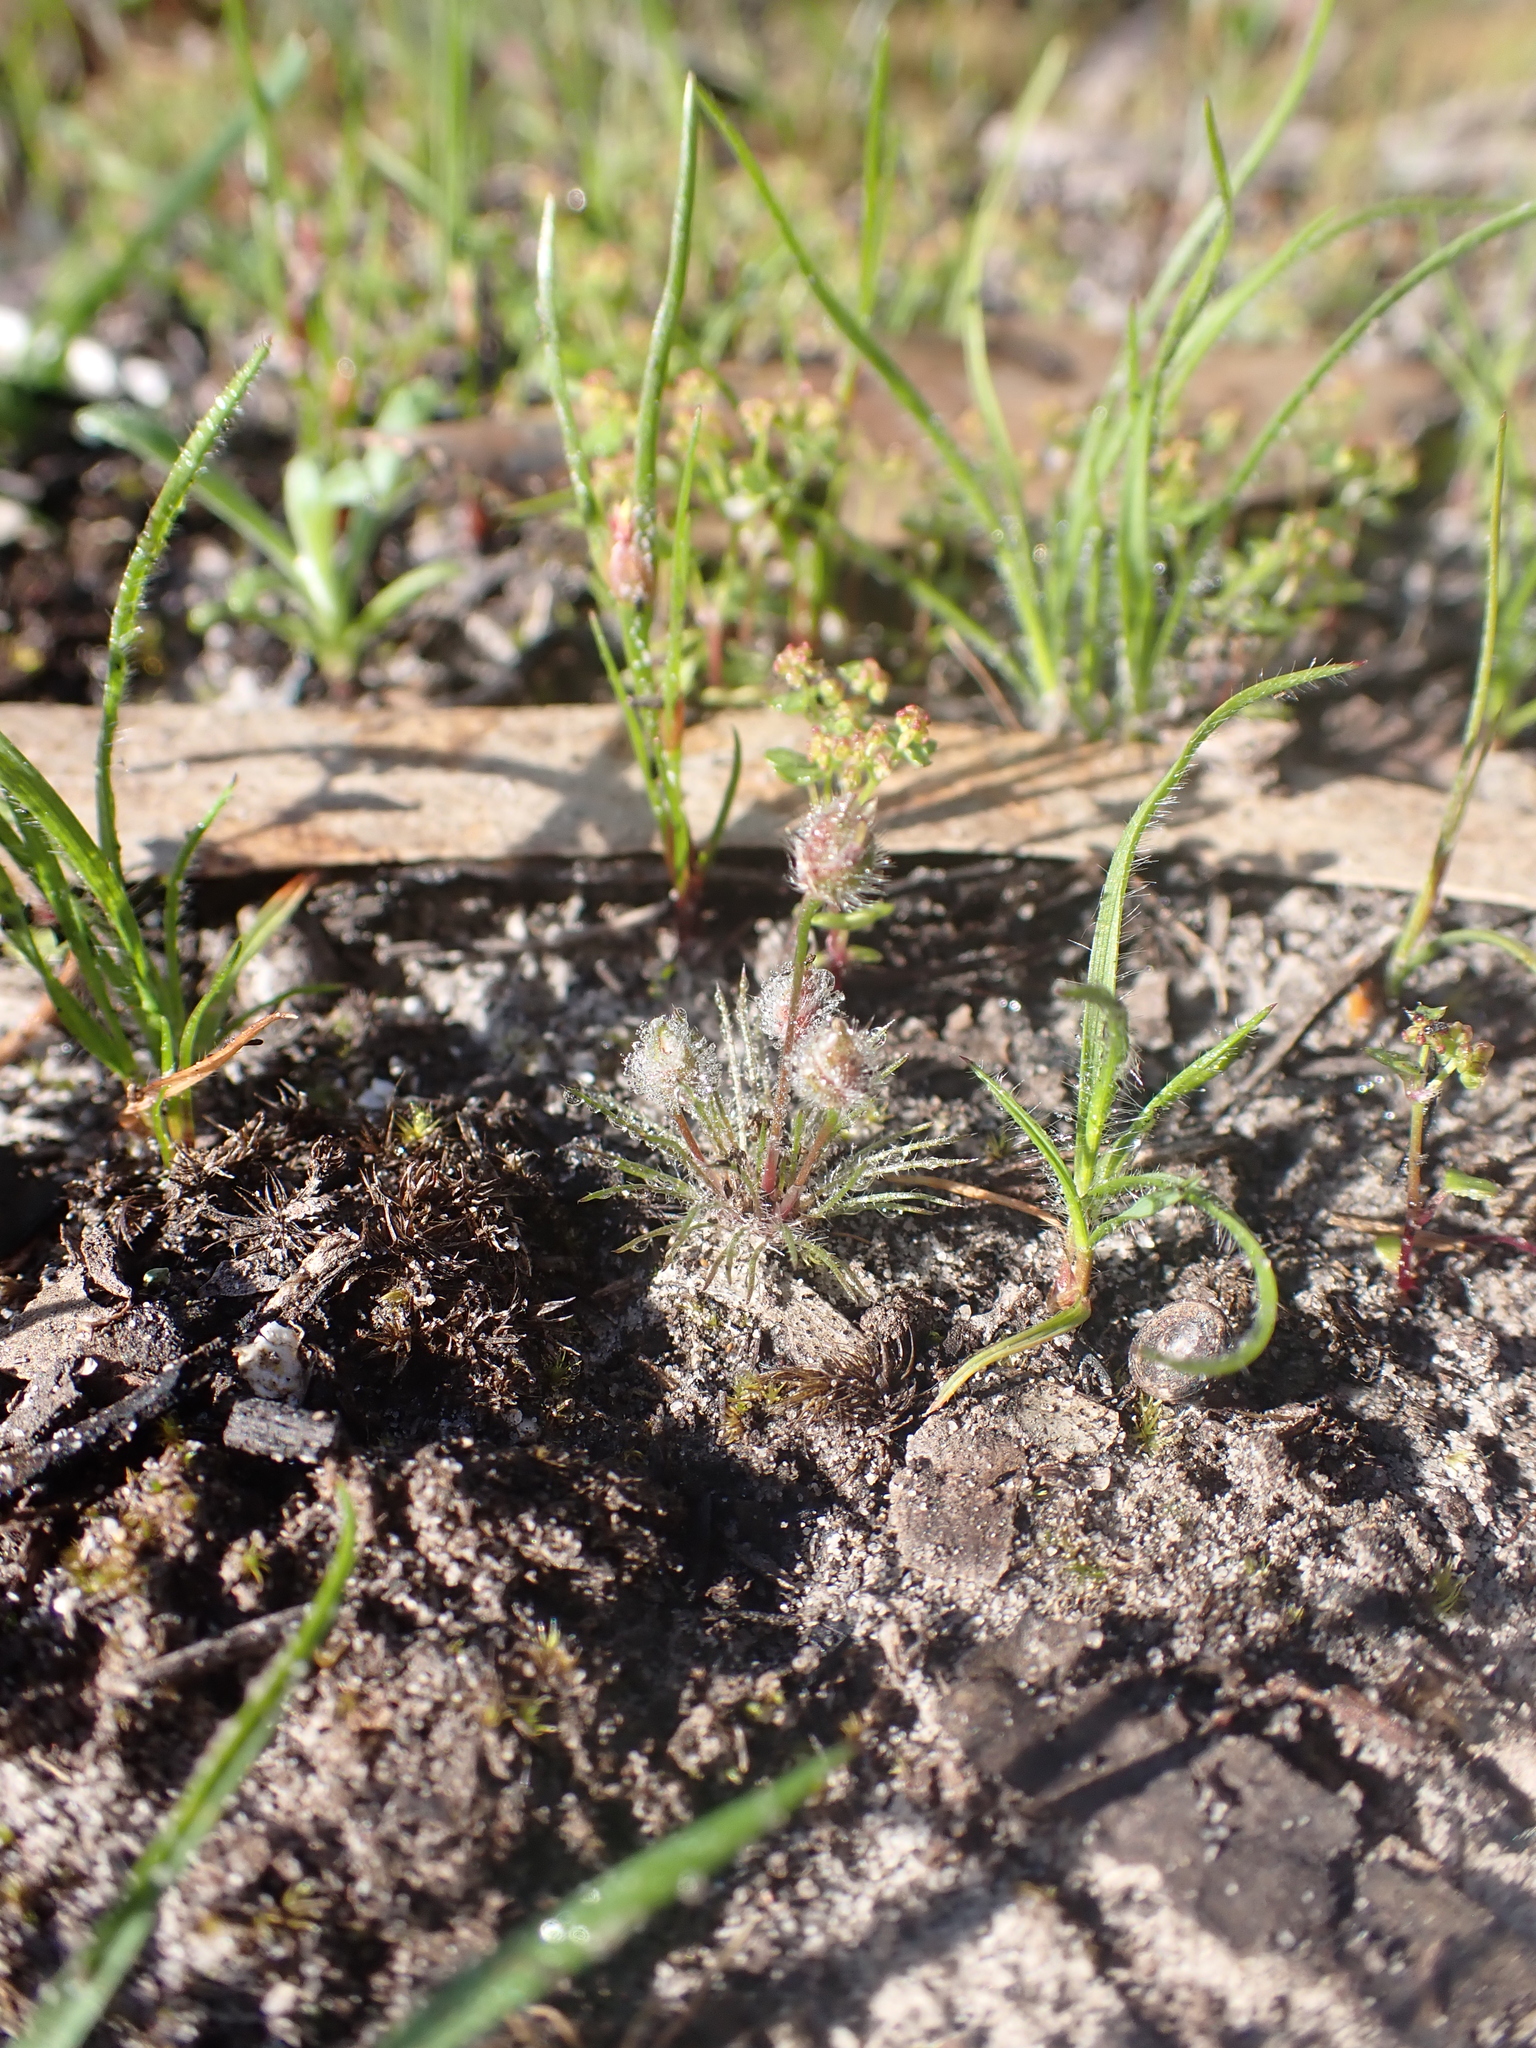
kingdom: Plantae
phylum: Tracheophyta
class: Liliopsida
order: Poales
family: Restionaceae
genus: Centrolepis
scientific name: Centrolepis strigosa
